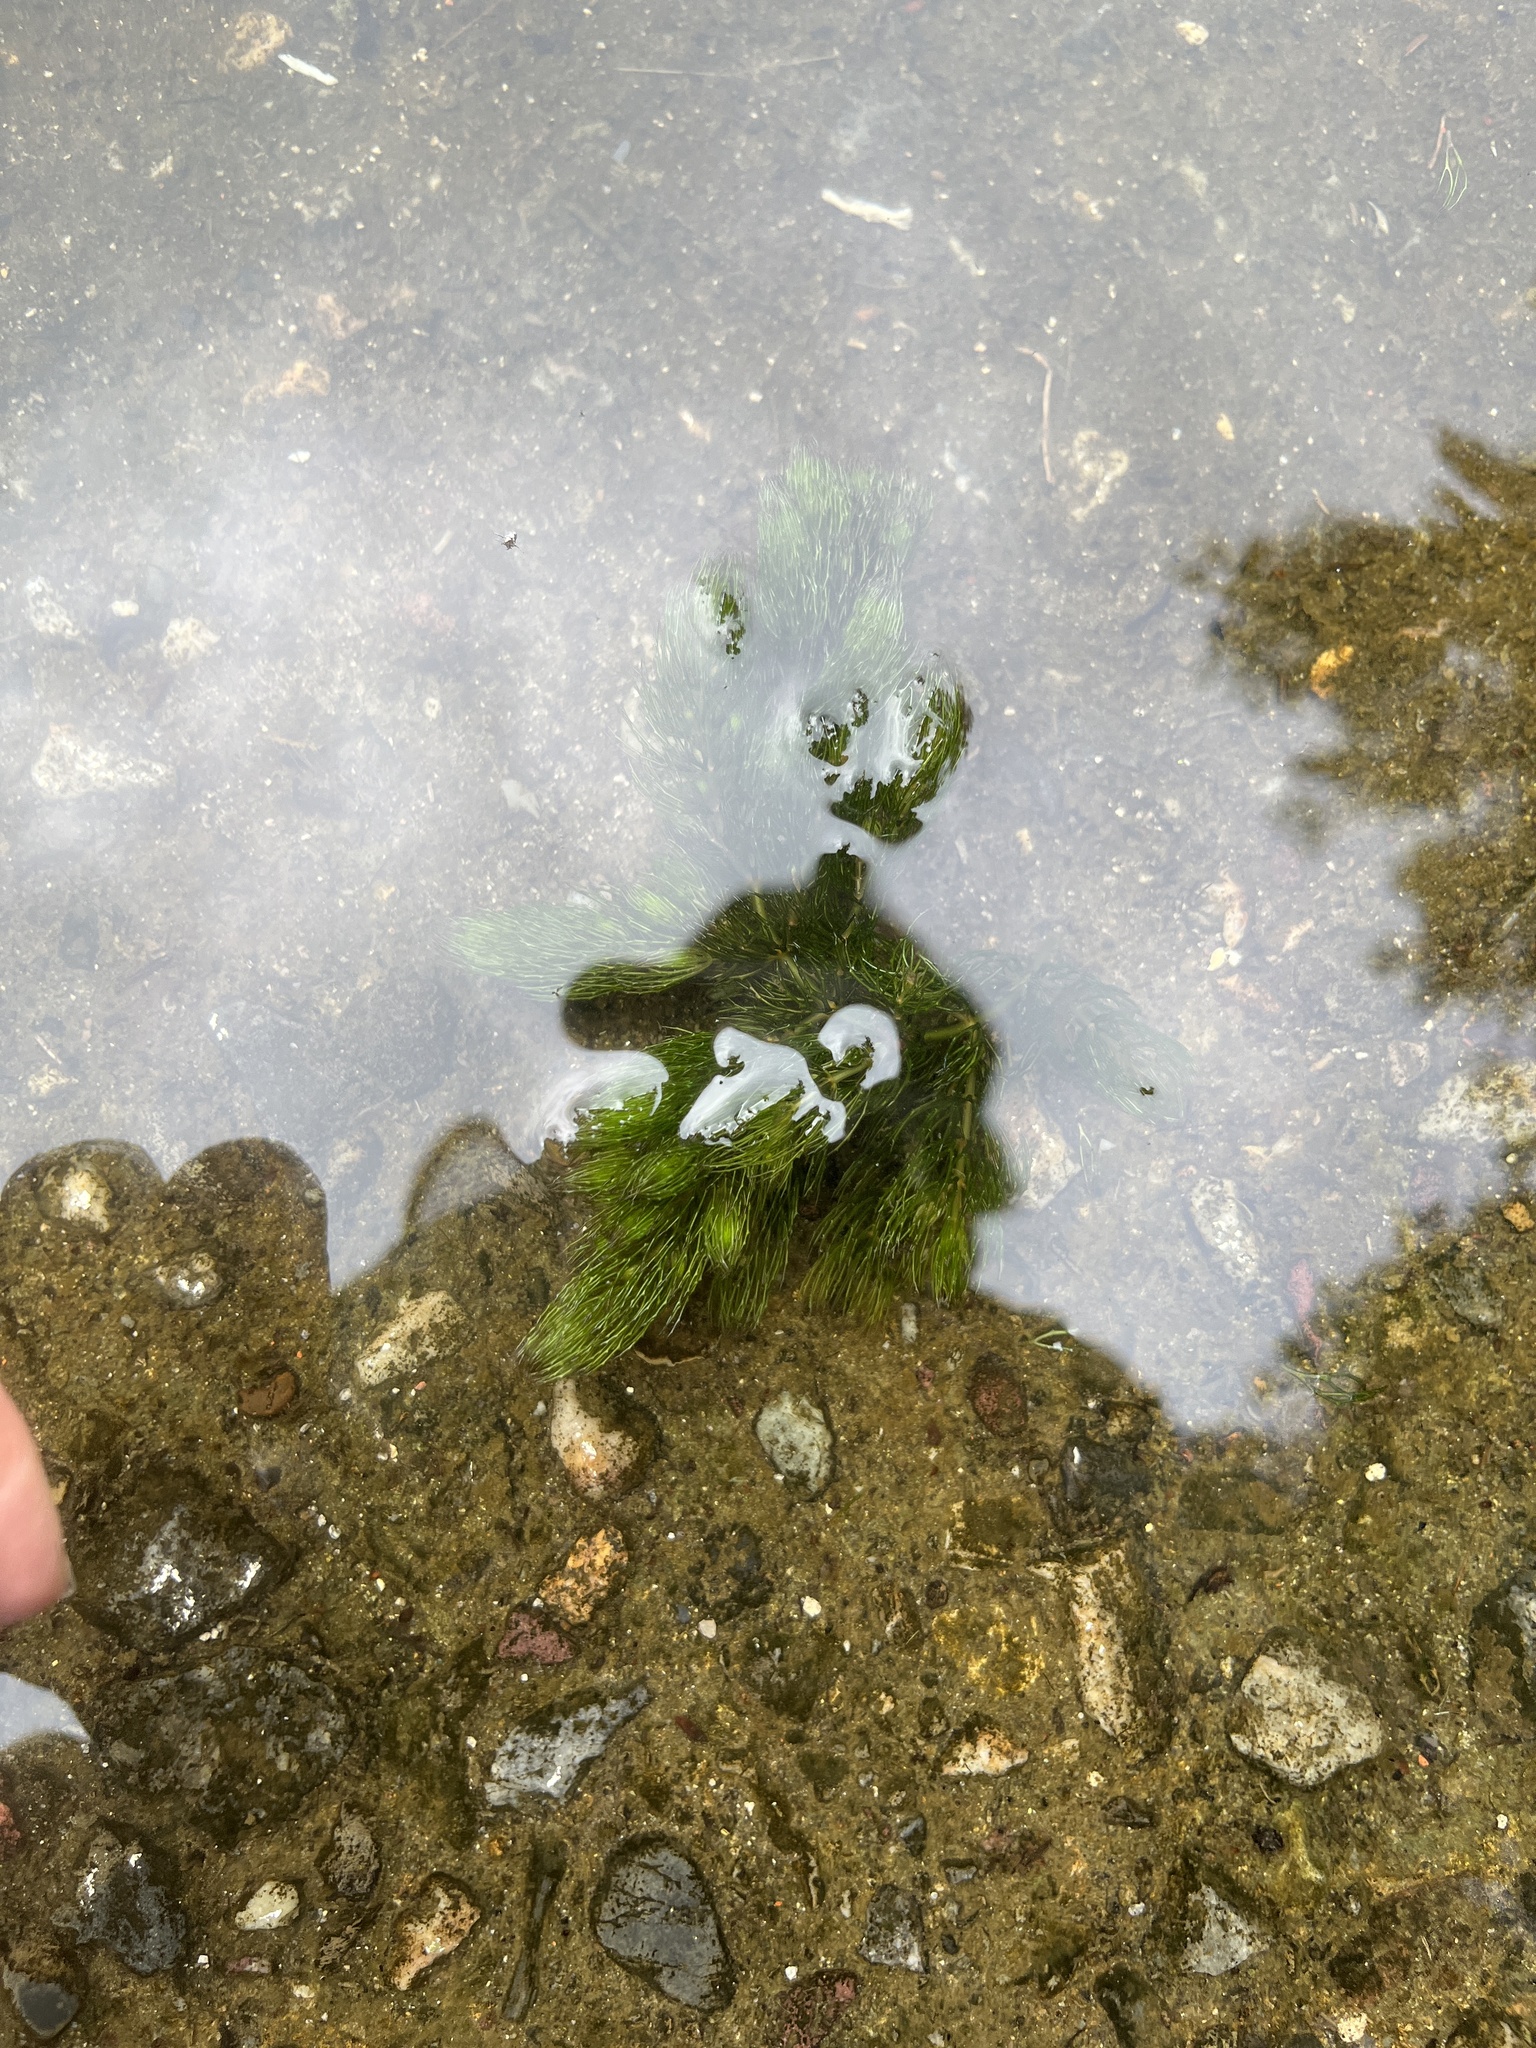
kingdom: Plantae
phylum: Tracheophyta
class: Magnoliopsida
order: Ceratophyllales
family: Ceratophyllaceae
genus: Ceratophyllum
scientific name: Ceratophyllum demersum
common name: Rigid hornwort
